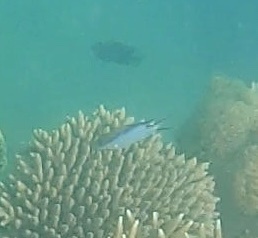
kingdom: Animalia
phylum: Chordata
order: Perciformes
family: Pomacentridae
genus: Chromis
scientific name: Chromis nitida
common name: Barrier reef chromis
